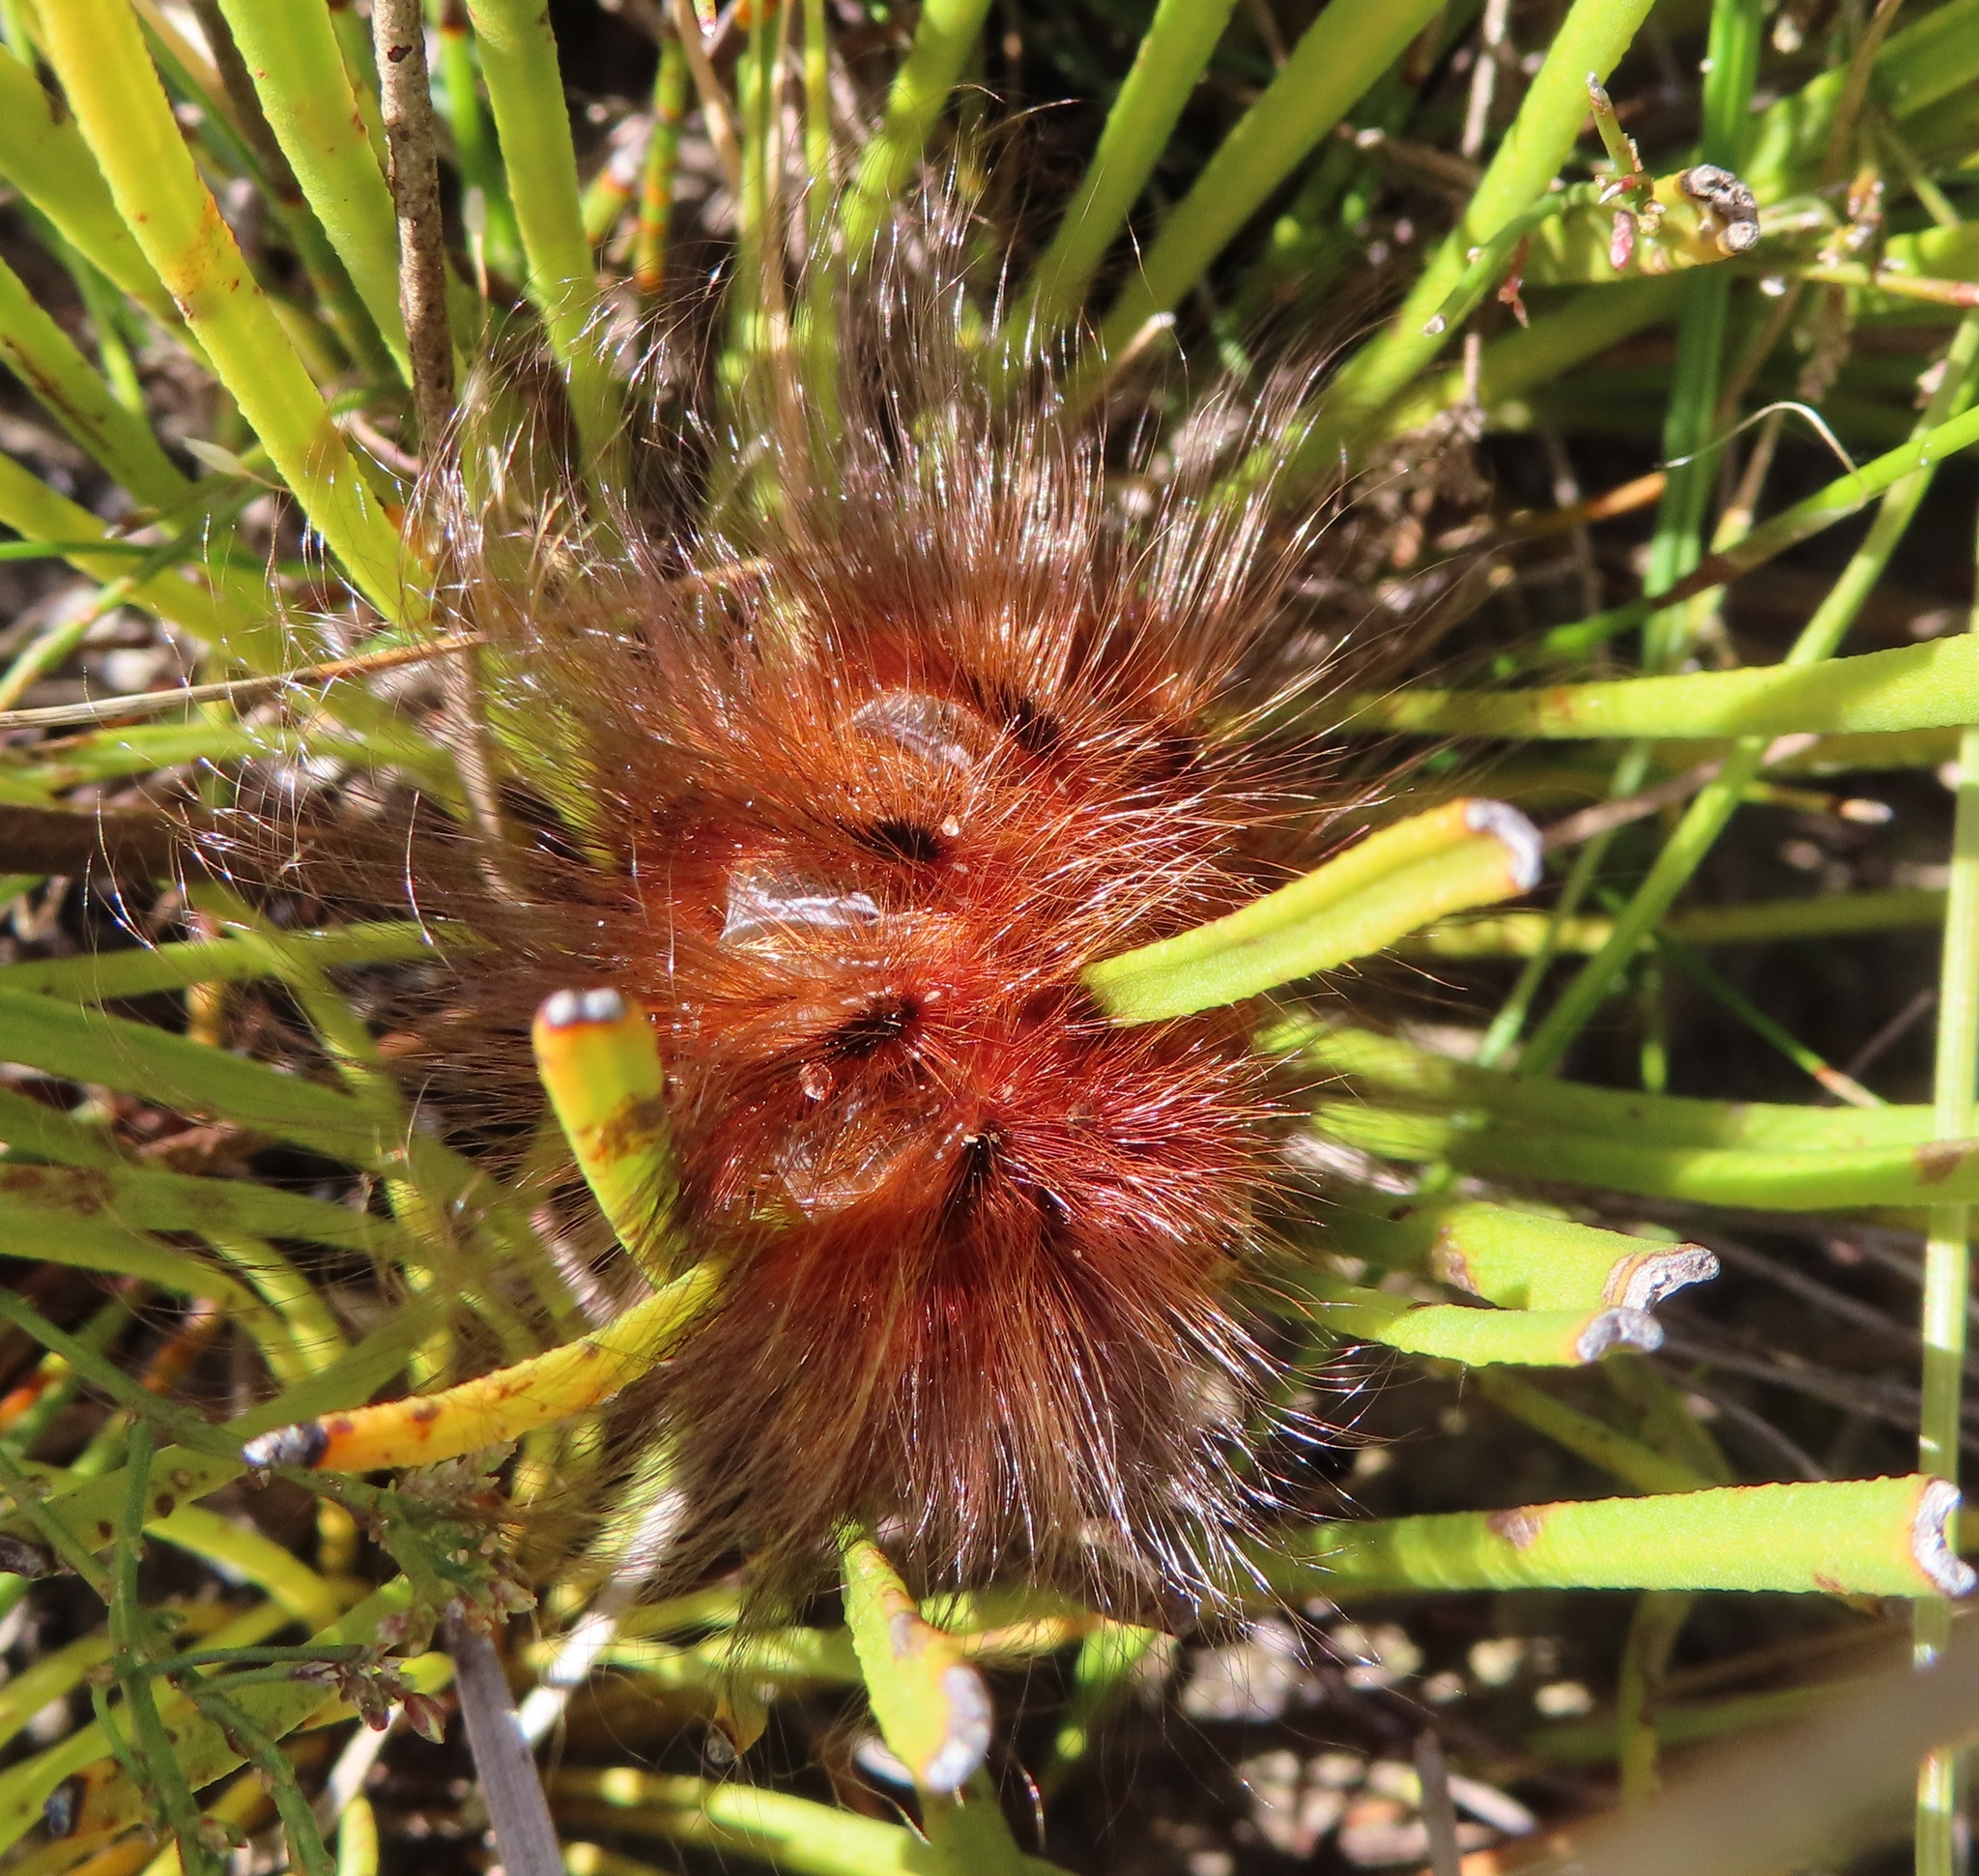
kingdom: Animalia
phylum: Arthropoda
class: Insecta
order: Lepidoptera
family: Eupterotidae
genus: Phyllalia
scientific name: Phyllalia patens
